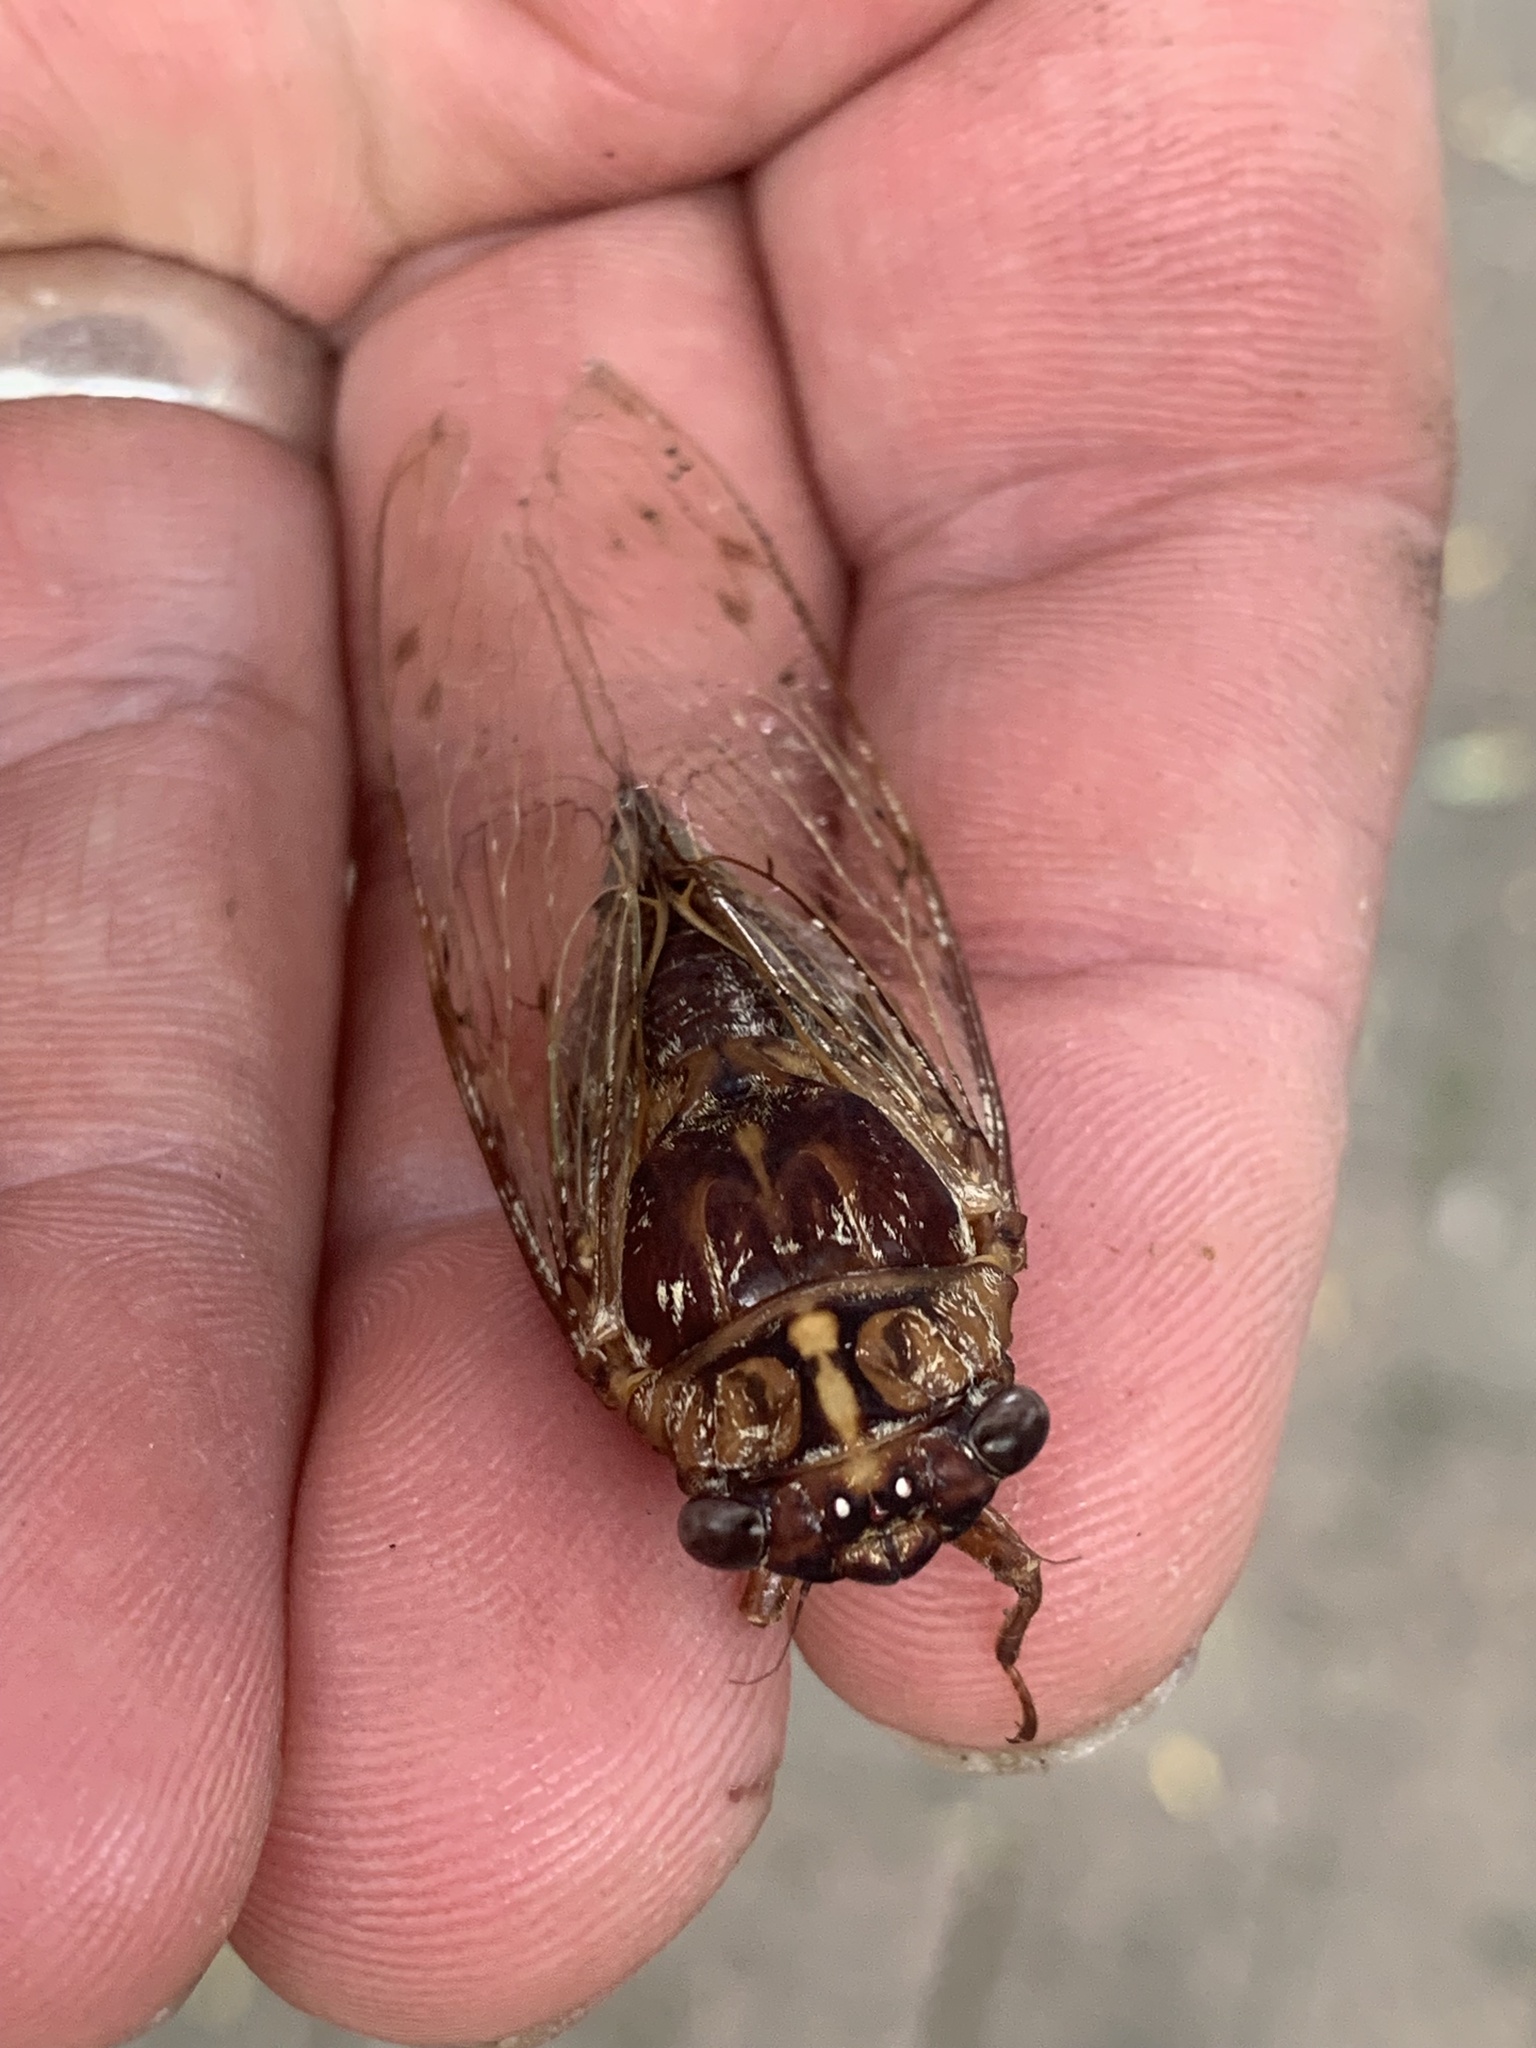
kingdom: Animalia
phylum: Arthropoda
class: Insecta
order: Hemiptera
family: Cicadidae
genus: Aleeta
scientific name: Aleeta curvicosta
